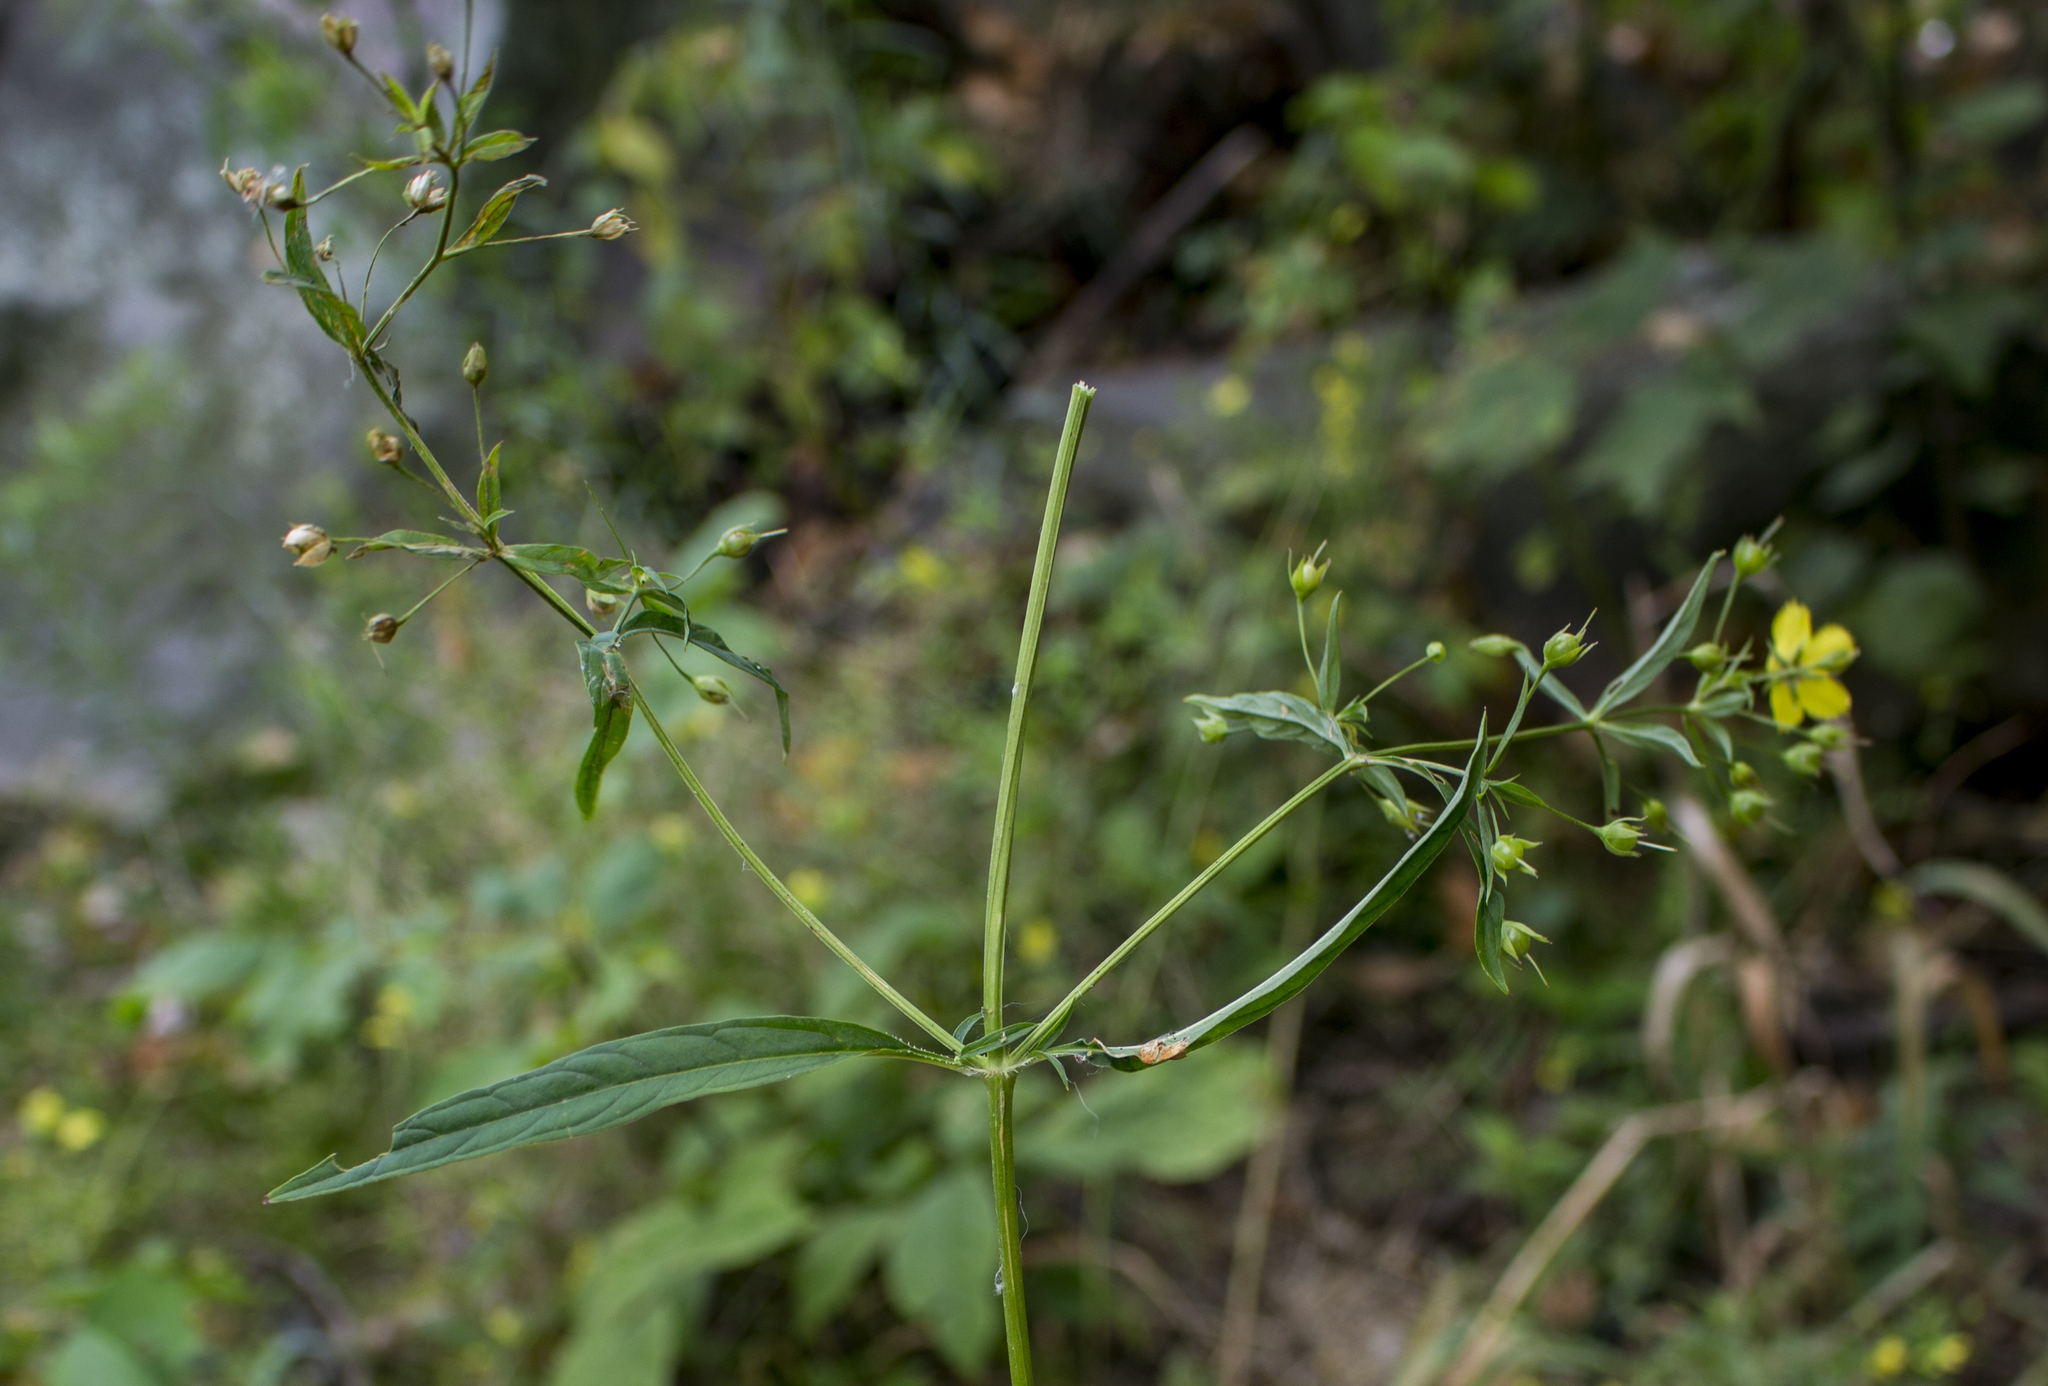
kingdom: Plantae
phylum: Tracheophyta
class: Magnoliopsida
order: Ericales
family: Primulaceae
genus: Lysimachia
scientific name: Lysimachia lanceolata
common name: Lance-leaved loosestrife
